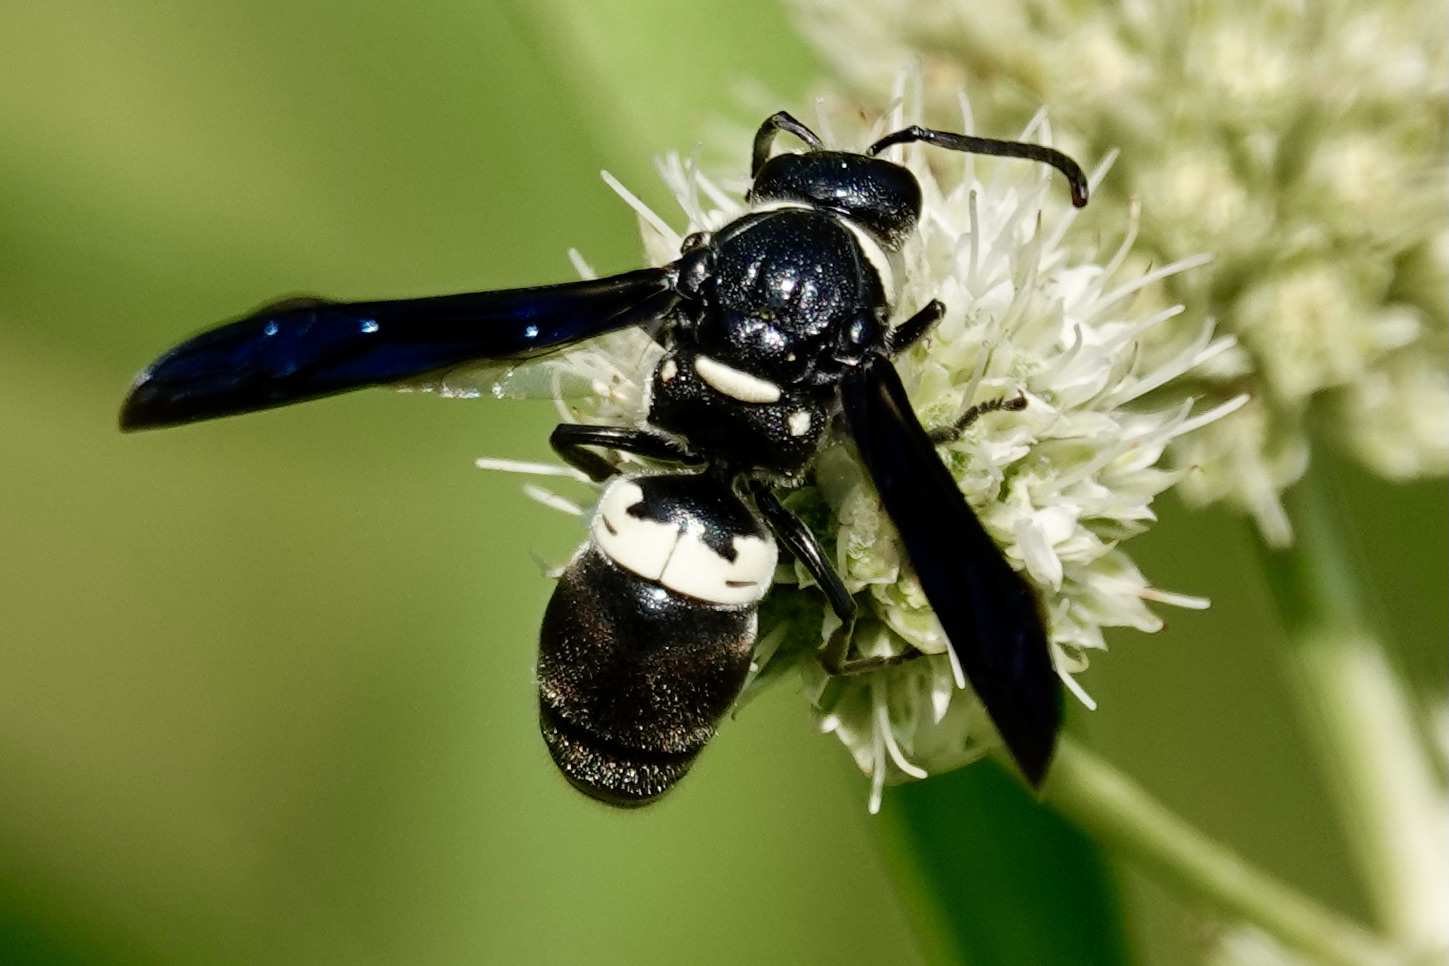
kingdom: Animalia
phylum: Arthropoda
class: Insecta
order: Hymenoptera
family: Eumenidae
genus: Monobia
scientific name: Monobia quadridens
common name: Four-toothed mason wasp
